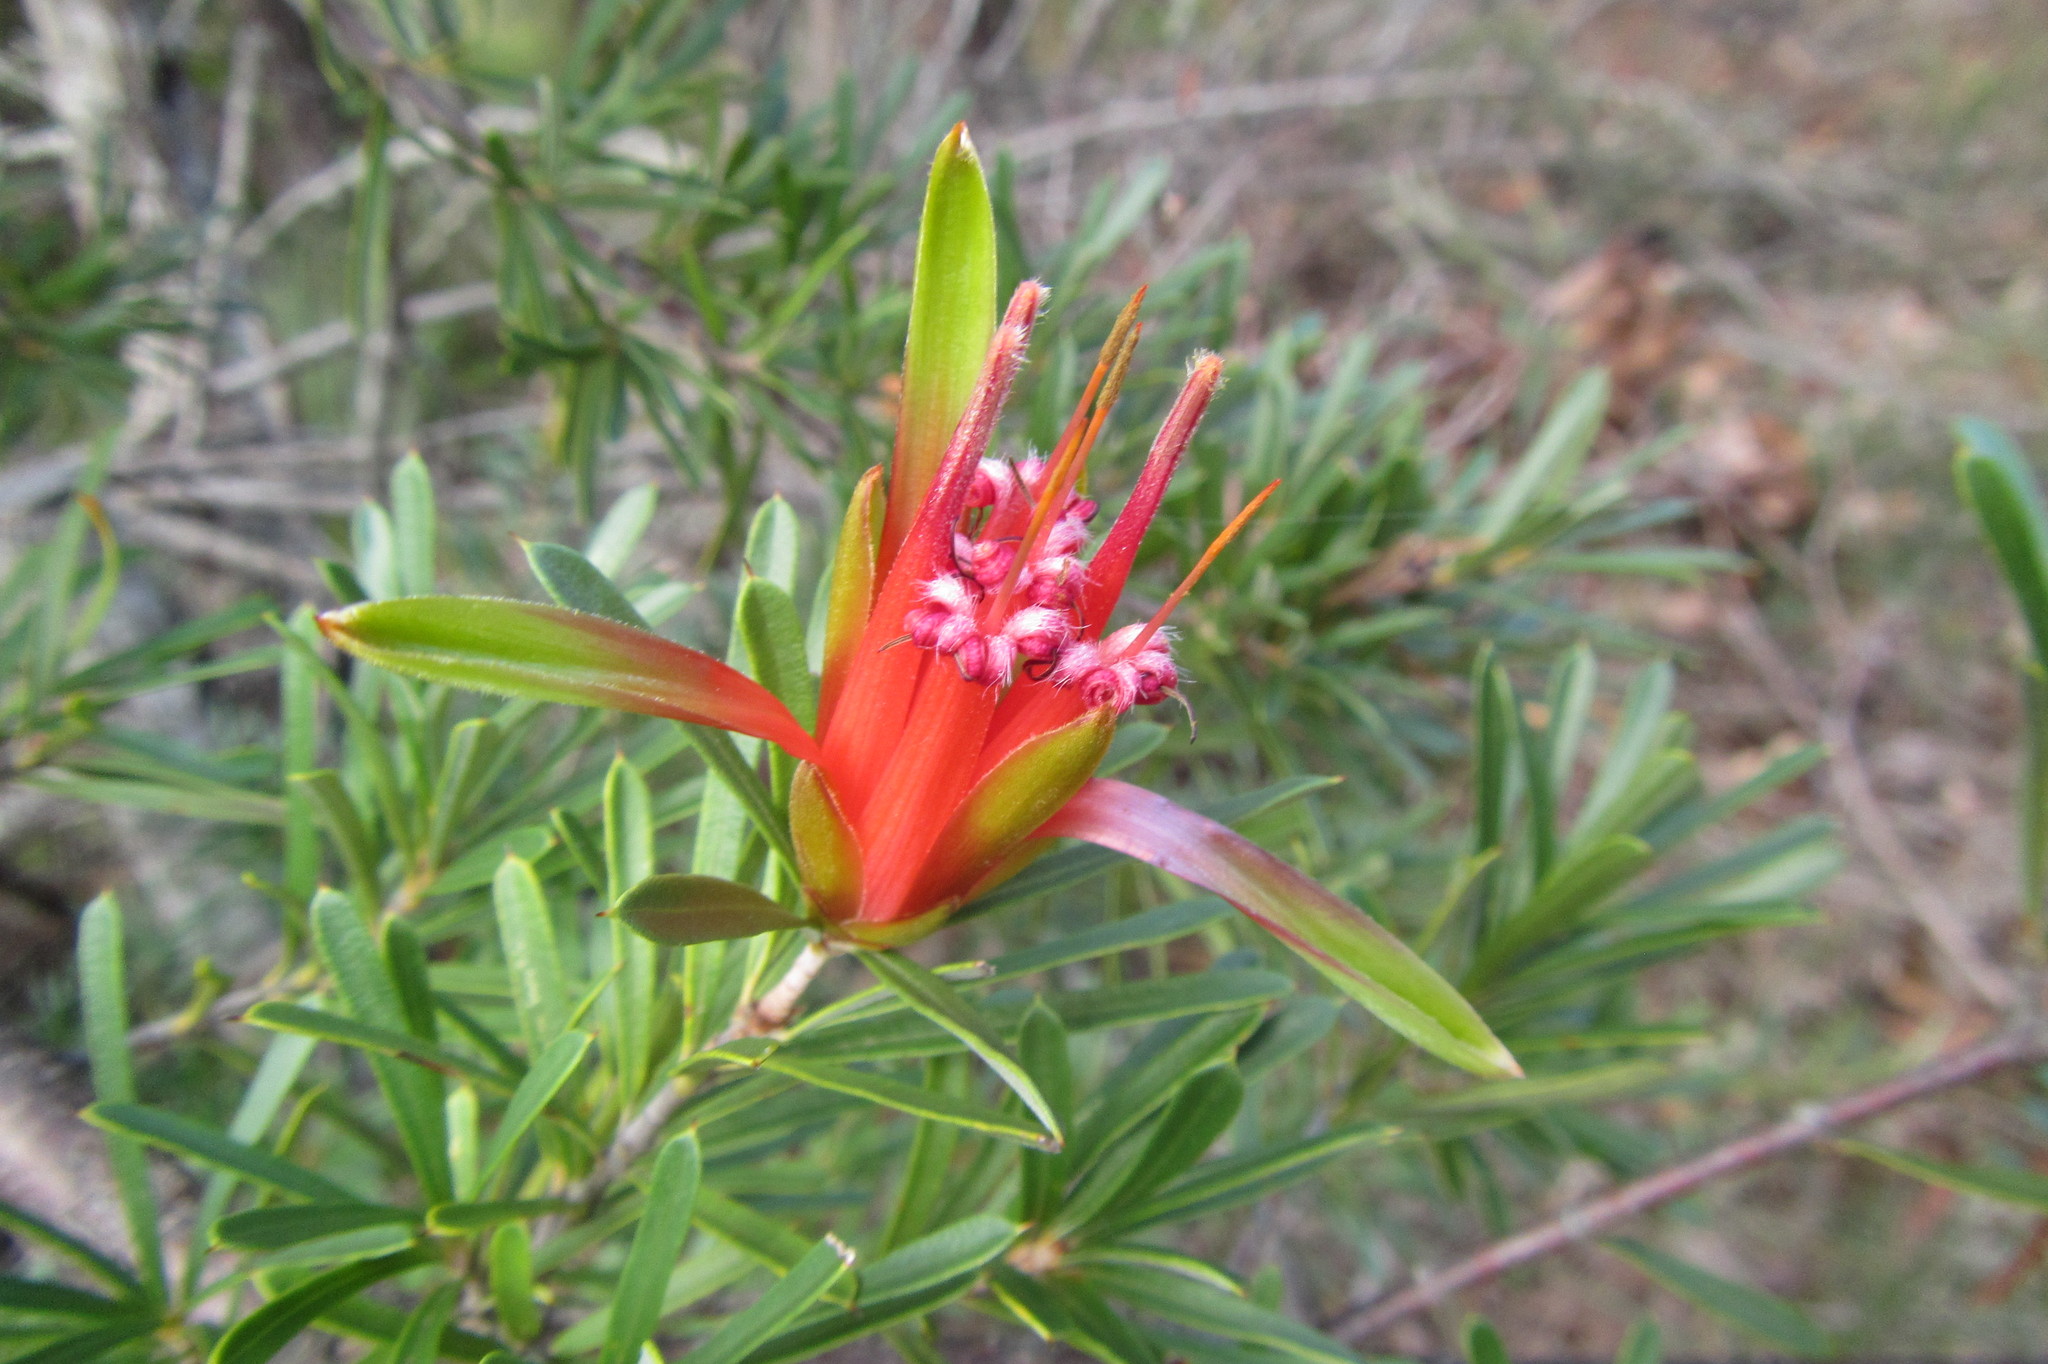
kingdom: Plantae
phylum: Tracheophyta
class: Magnoliopsida
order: Proteales
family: Proteaceae
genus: Lambertia
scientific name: Lambertia formosa
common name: Mountain-devil
